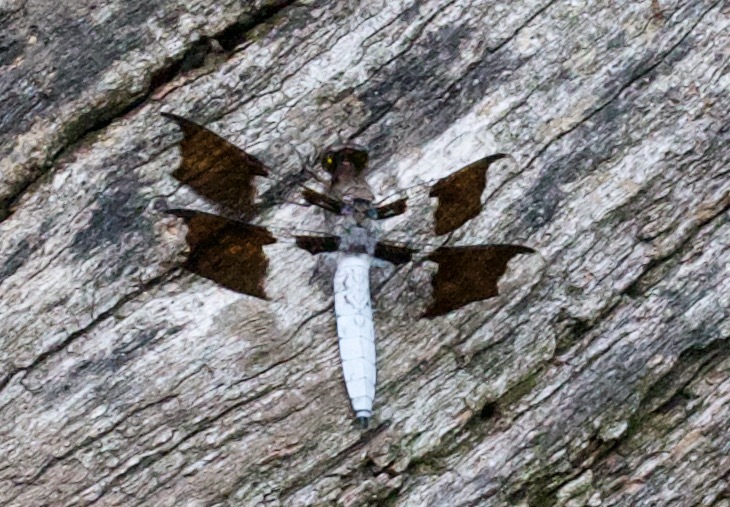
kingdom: Animalia
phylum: Arthropoda
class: Insecta
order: Odonata
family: Libellulidae
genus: Plathemis
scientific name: Plathemis lydia
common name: Common whitetail
